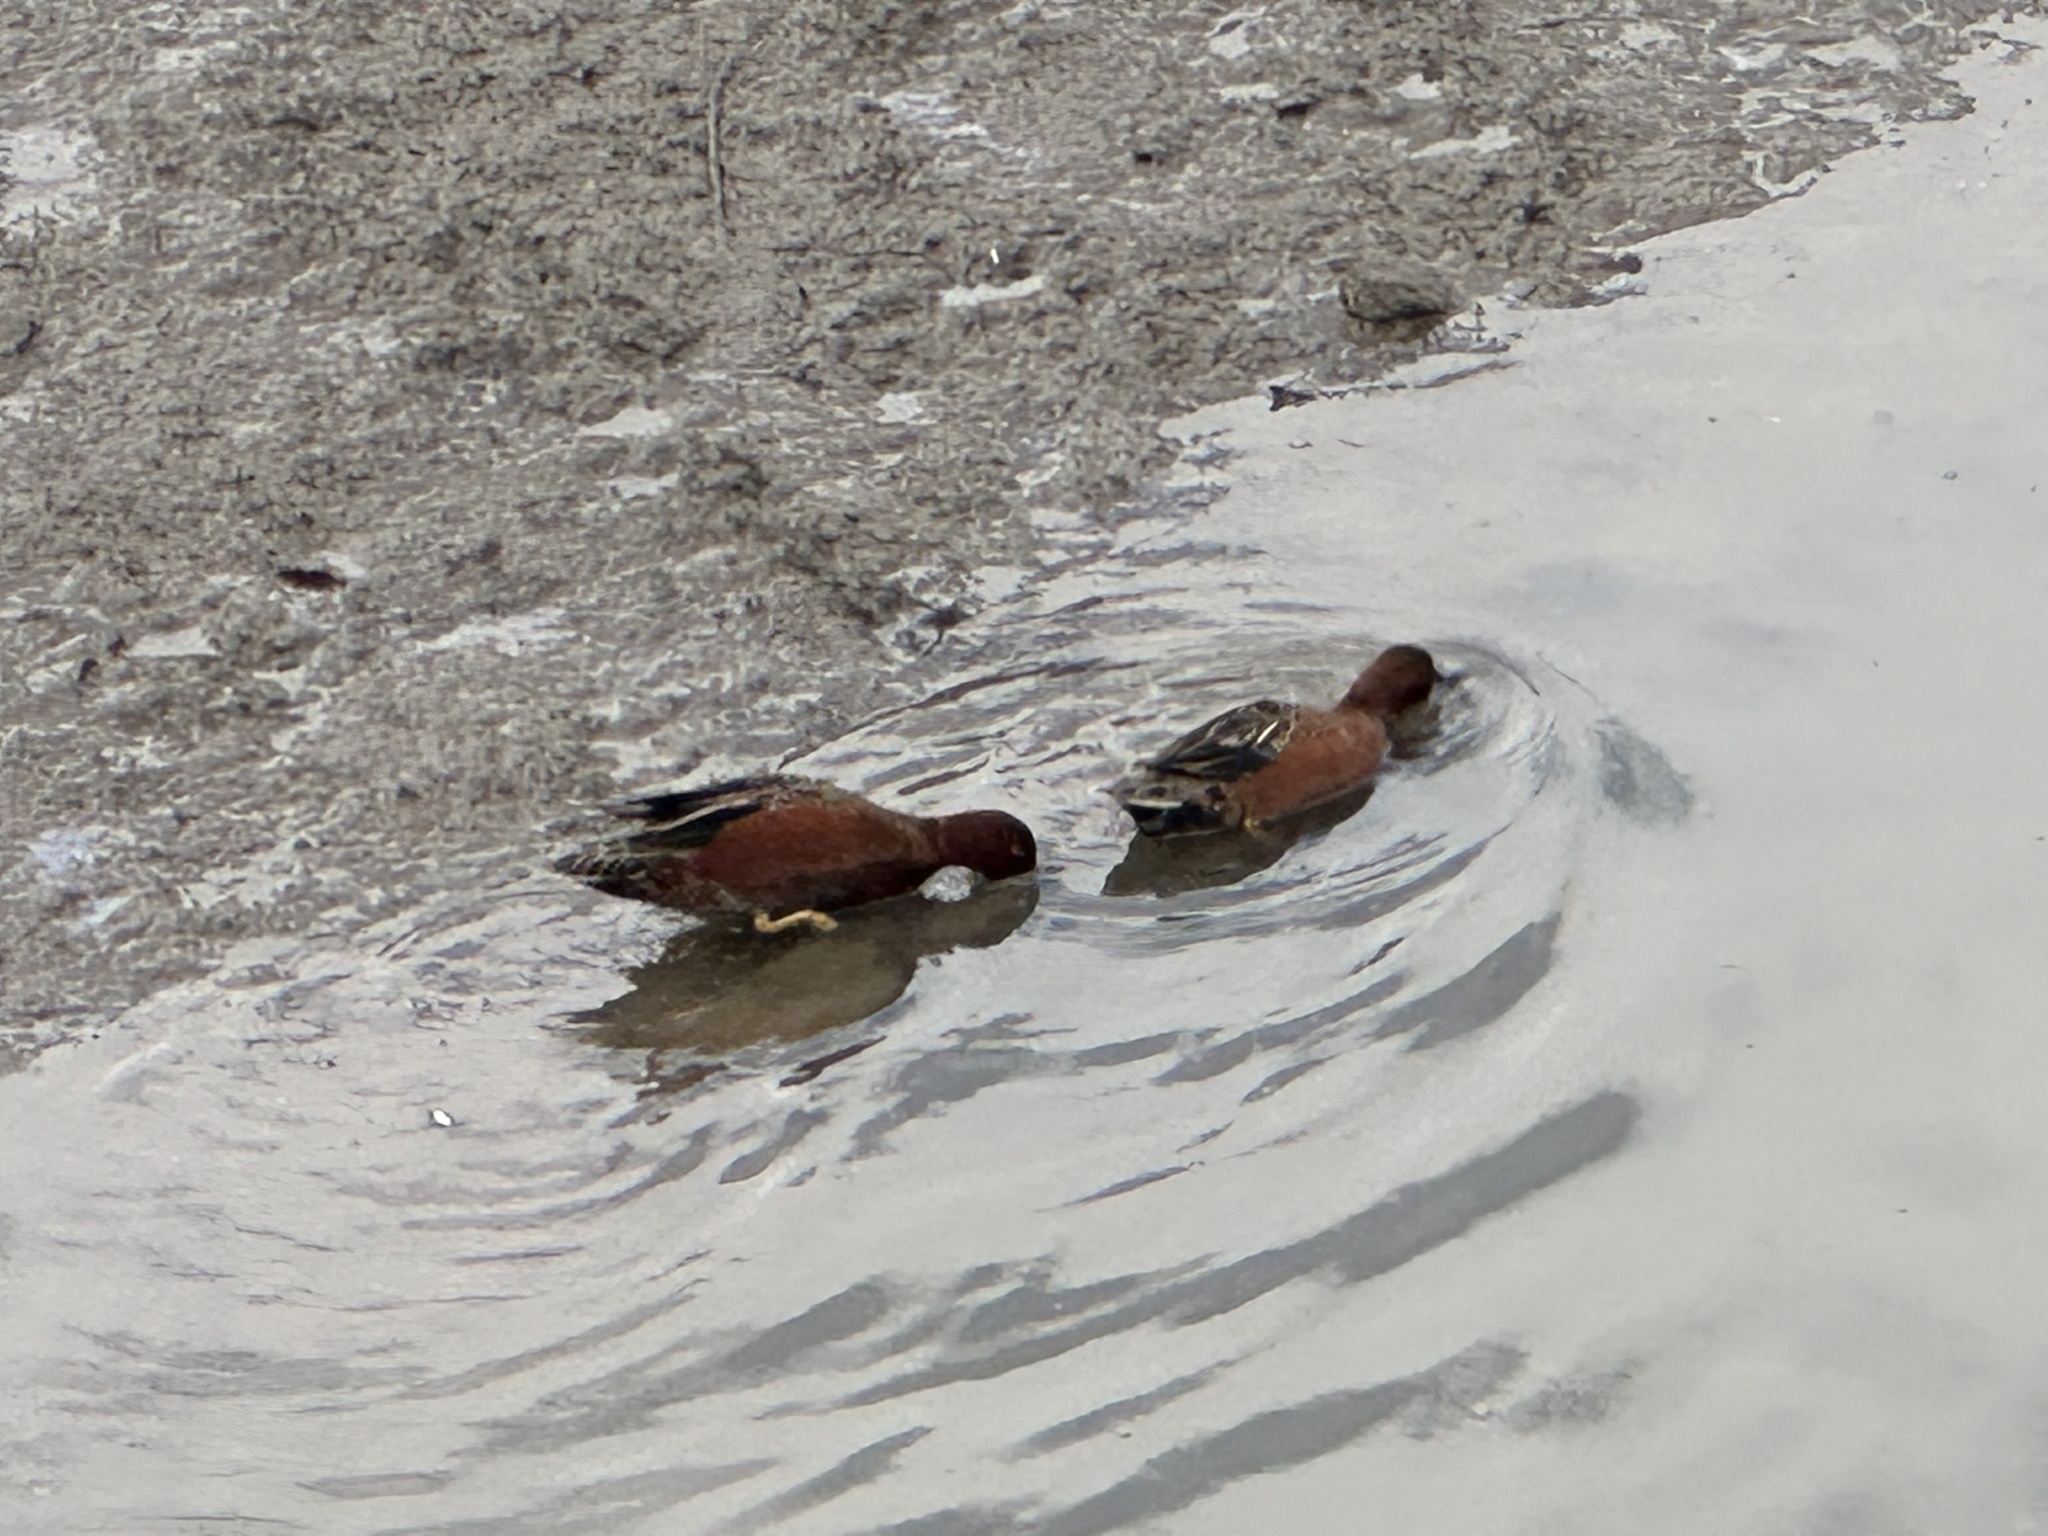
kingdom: Animalia
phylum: Chordata
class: Aves
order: Anseriformes
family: Anatidae
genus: Spatula
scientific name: Spatula cyanoptera
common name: Cinnamon teal
